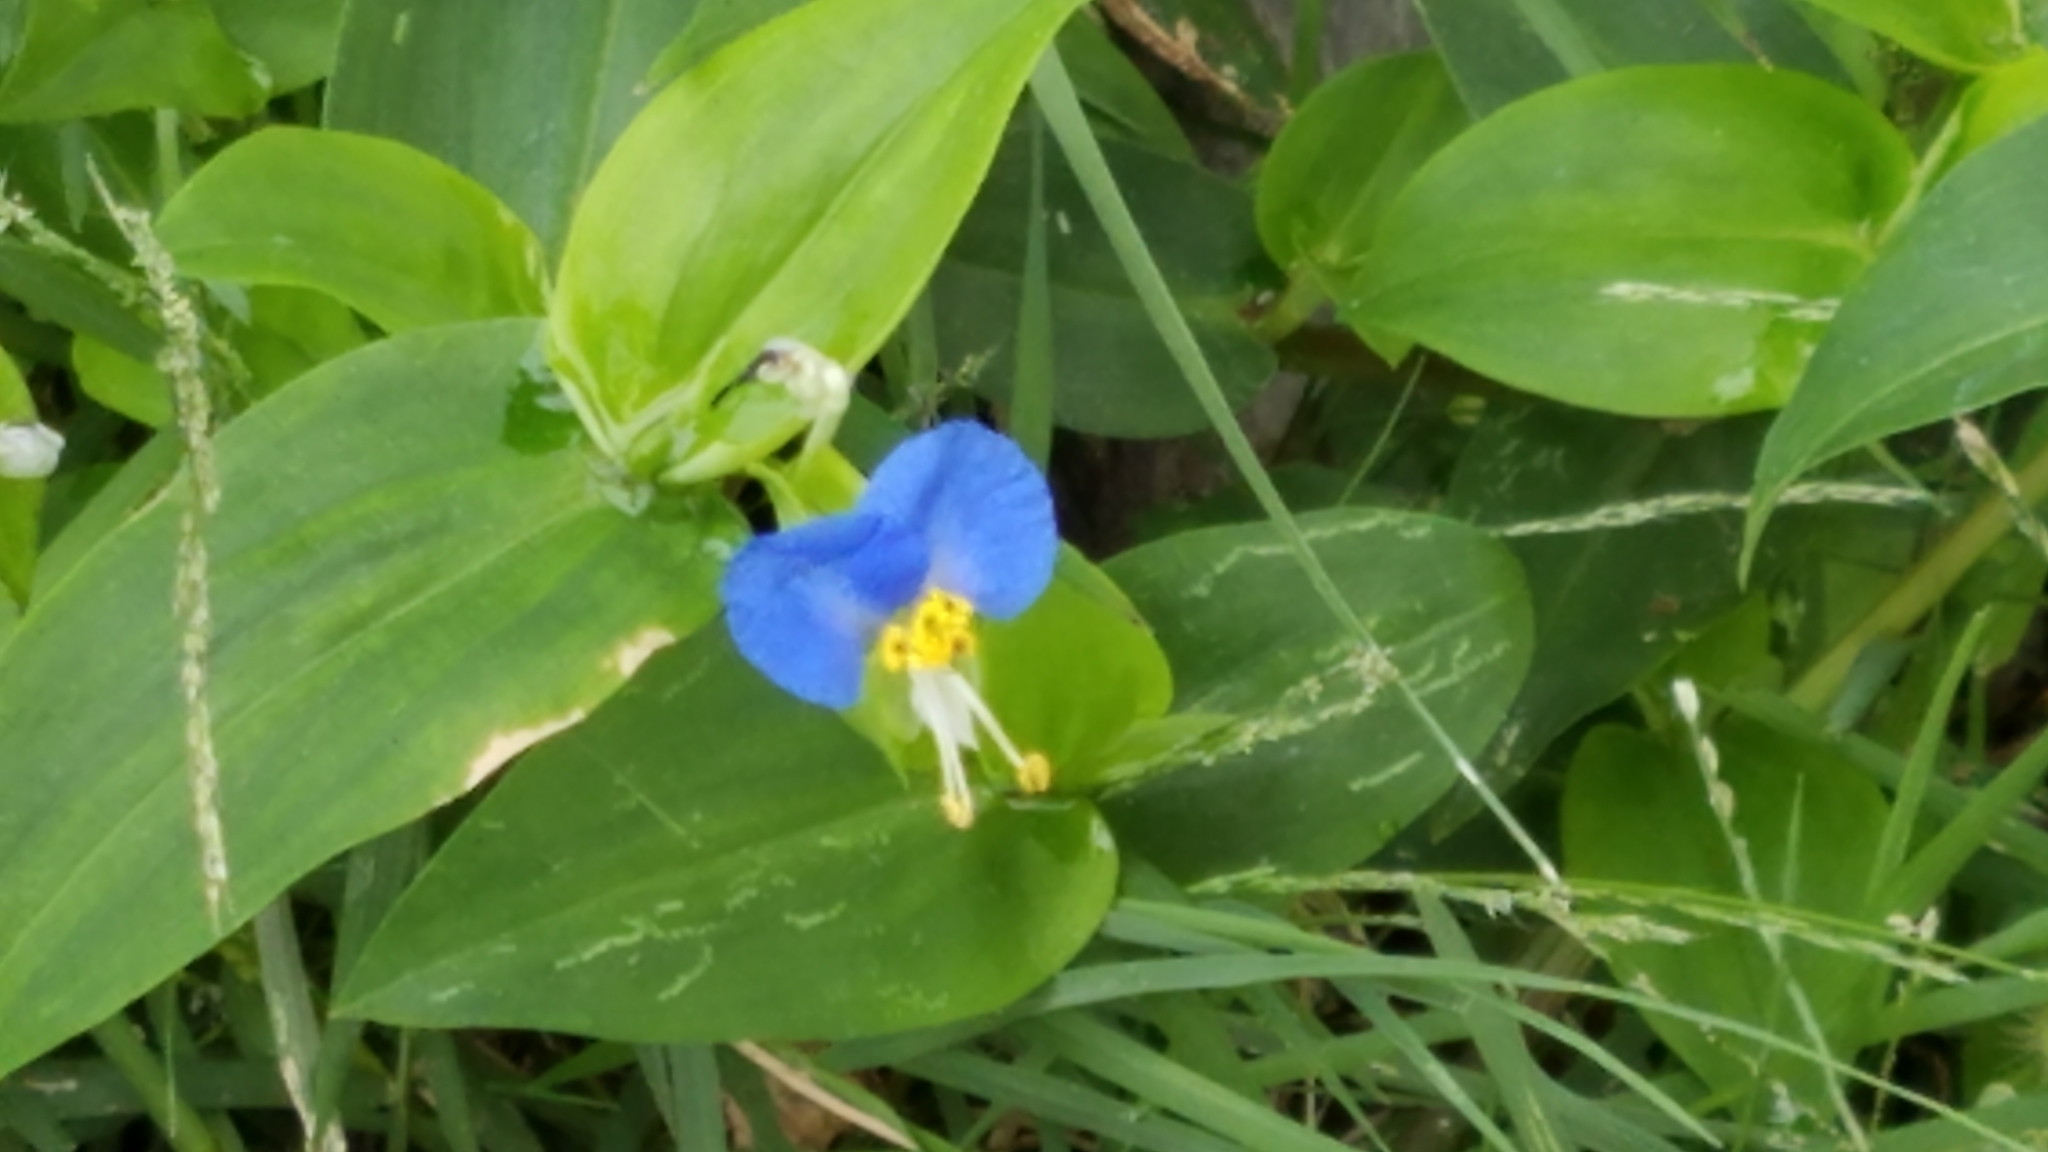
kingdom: Plantae
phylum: Tracheophyta
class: Liliopsida
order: Commelinales
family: Commelinaceae
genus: Commelina
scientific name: Commelina communis
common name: Asiatic dayflower
